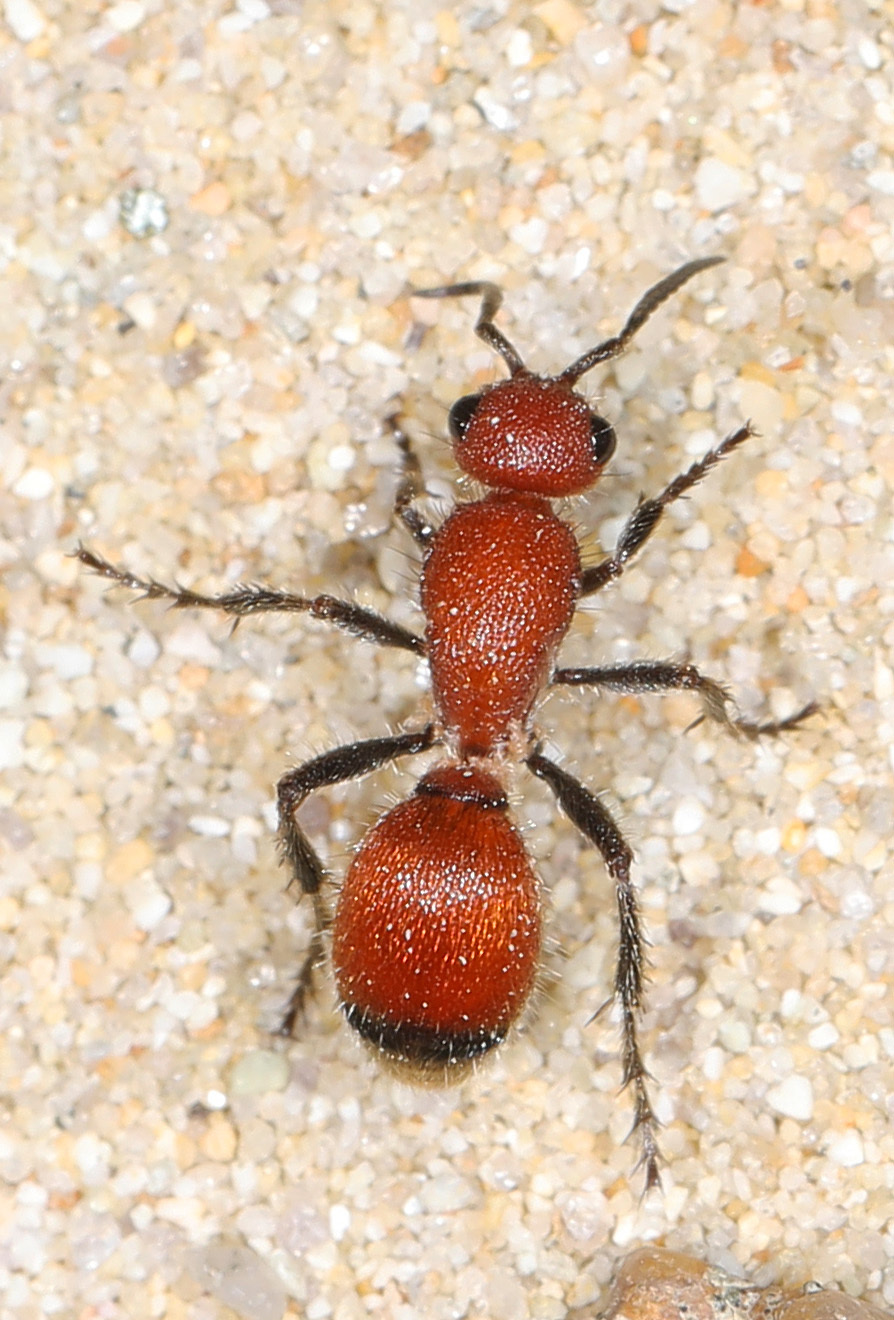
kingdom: Animalia
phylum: Arthropoda
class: Insecta
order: Hymenoptera
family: Mutillidae
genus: Dasymutilla
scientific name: Dasymutilla
